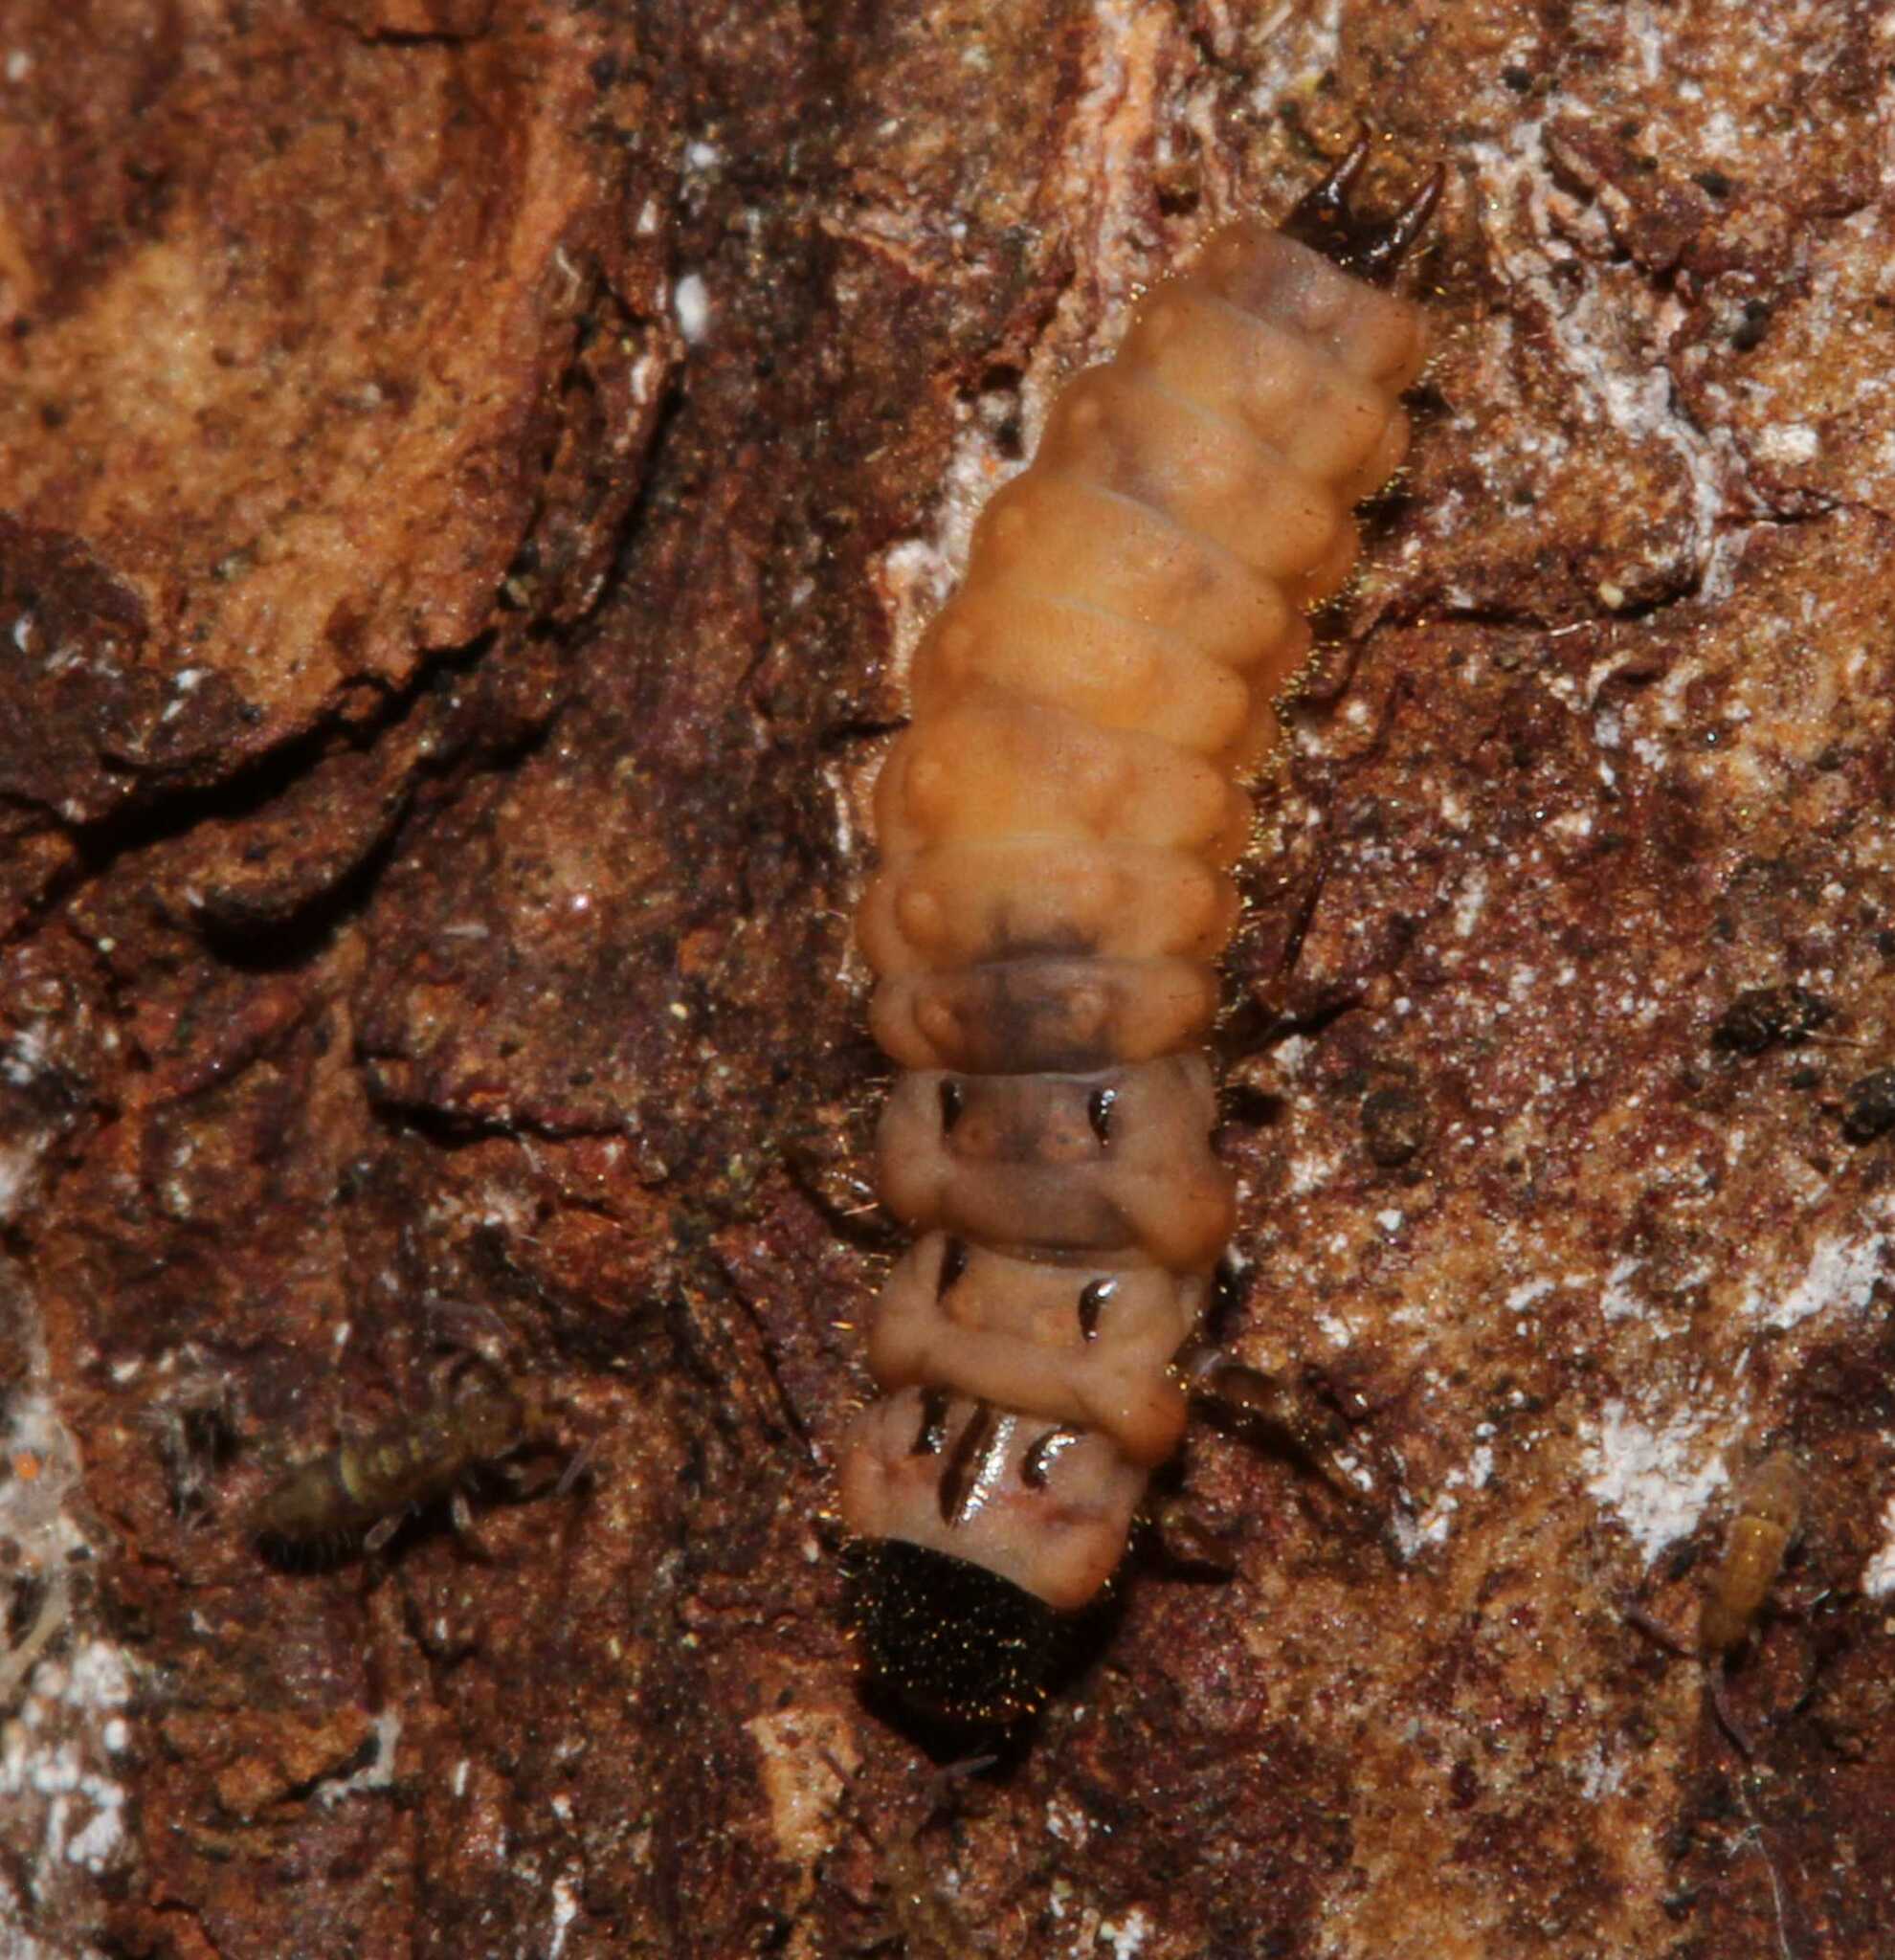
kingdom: Animalia
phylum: Arthropoda
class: Insecta
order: Coleoptera
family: Melyridae
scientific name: Melyridae
